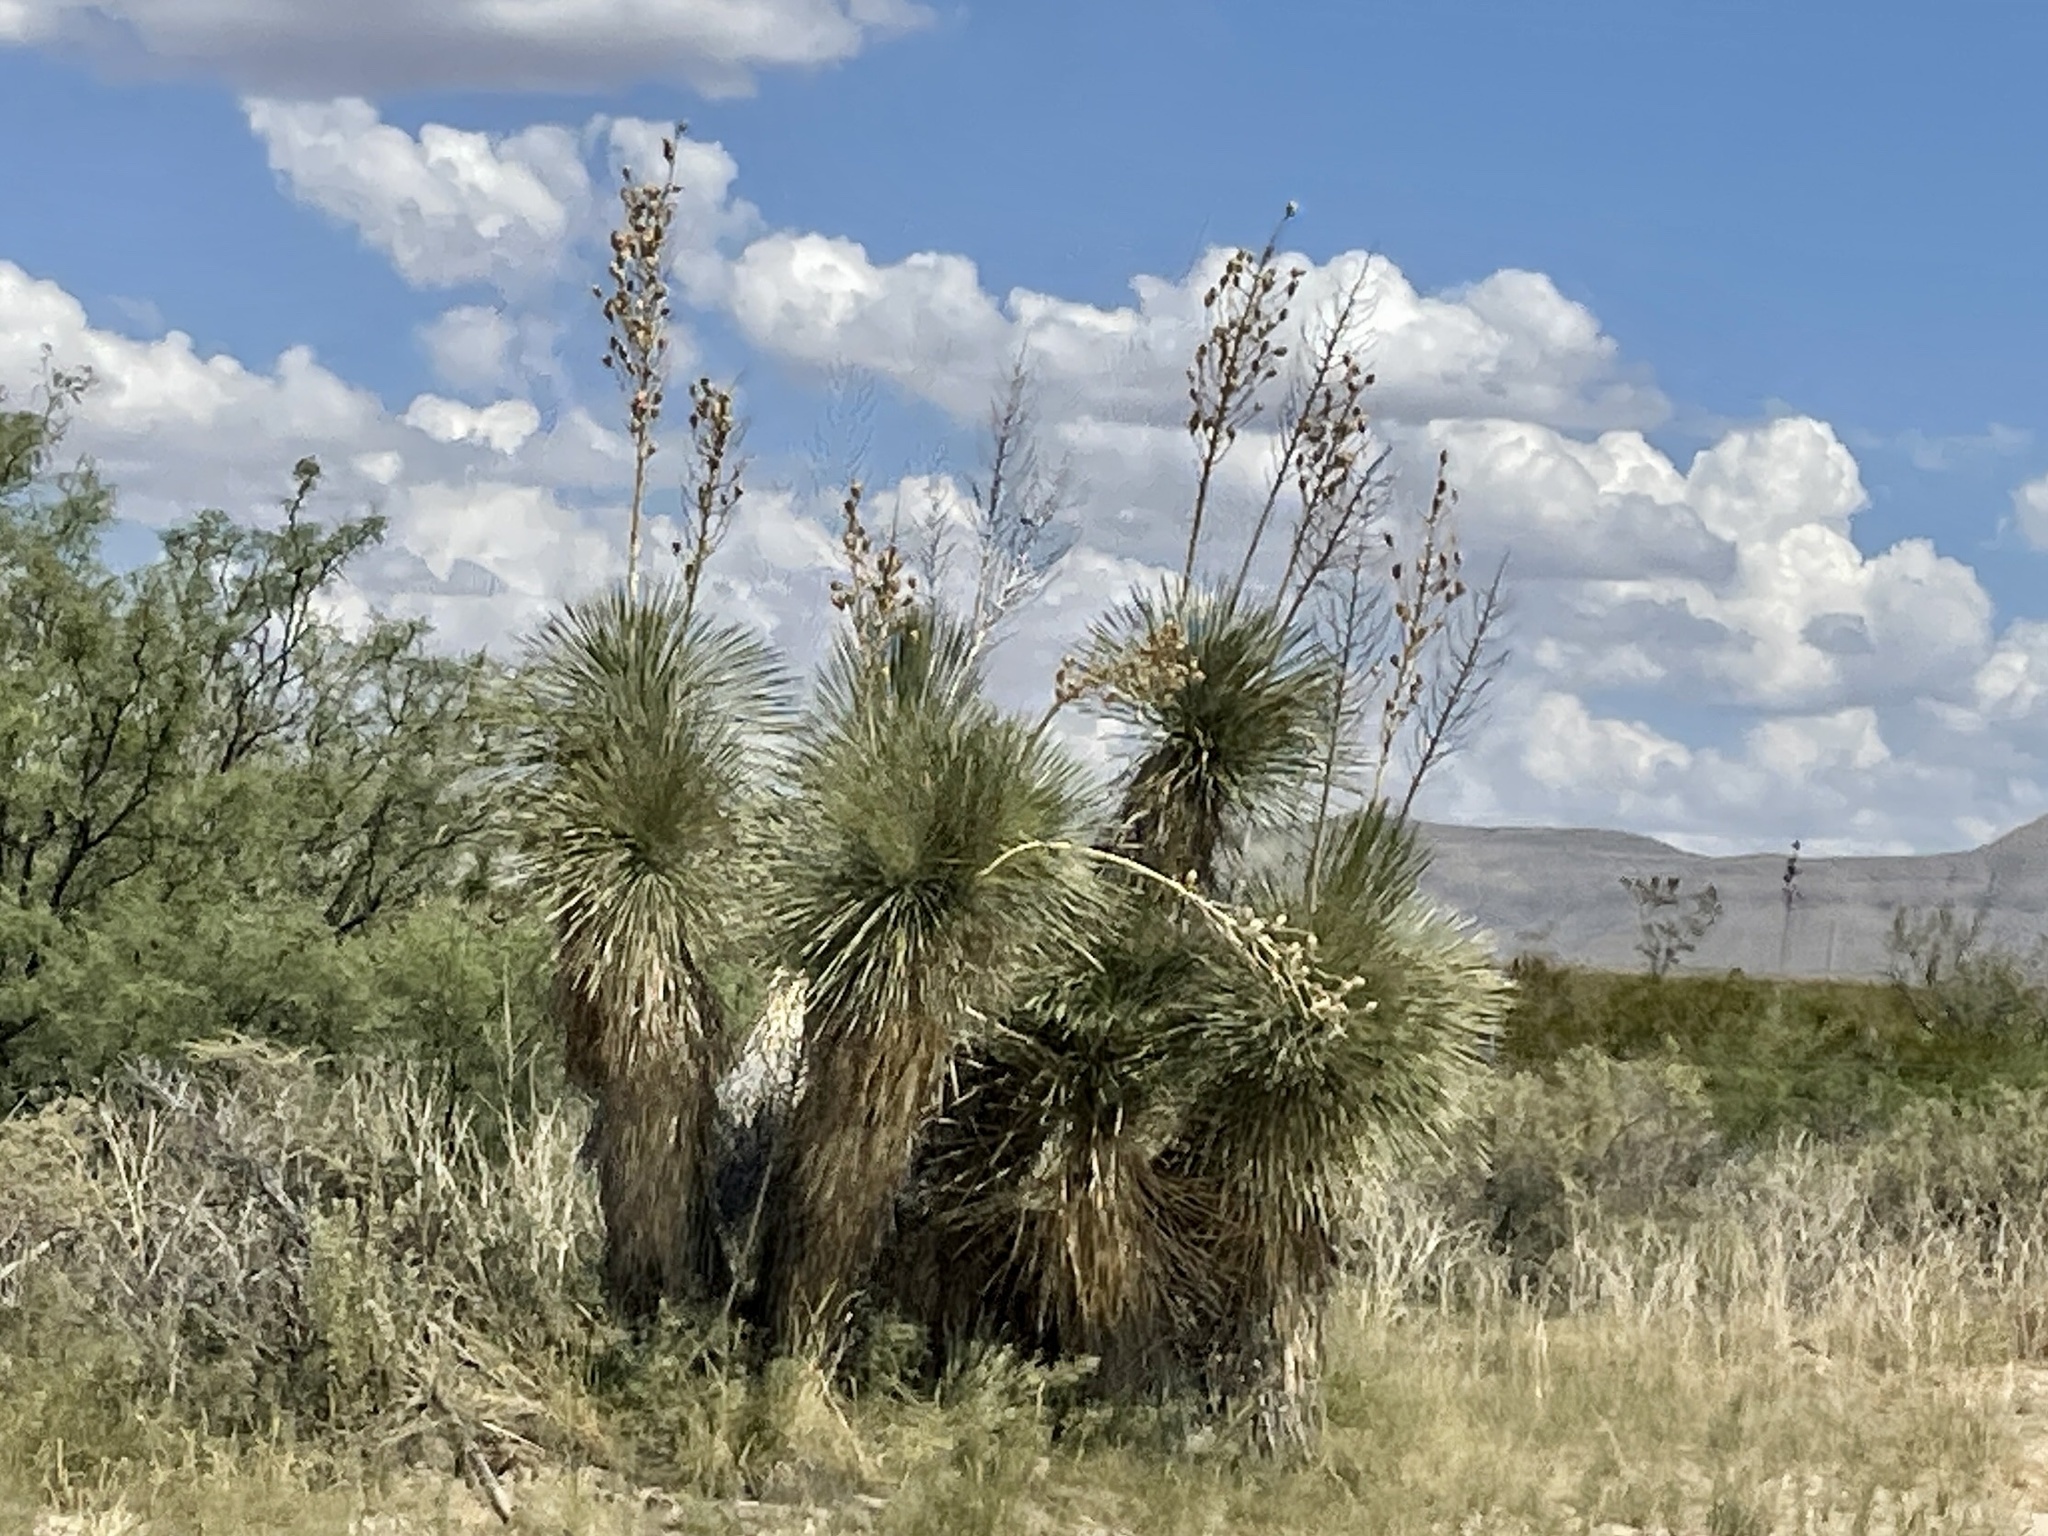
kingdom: Plantae
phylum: Tracheophyta
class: Liliopsida
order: Asparagales
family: Asparagaceae
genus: Yucca
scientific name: Yucca elata
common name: Palmella
